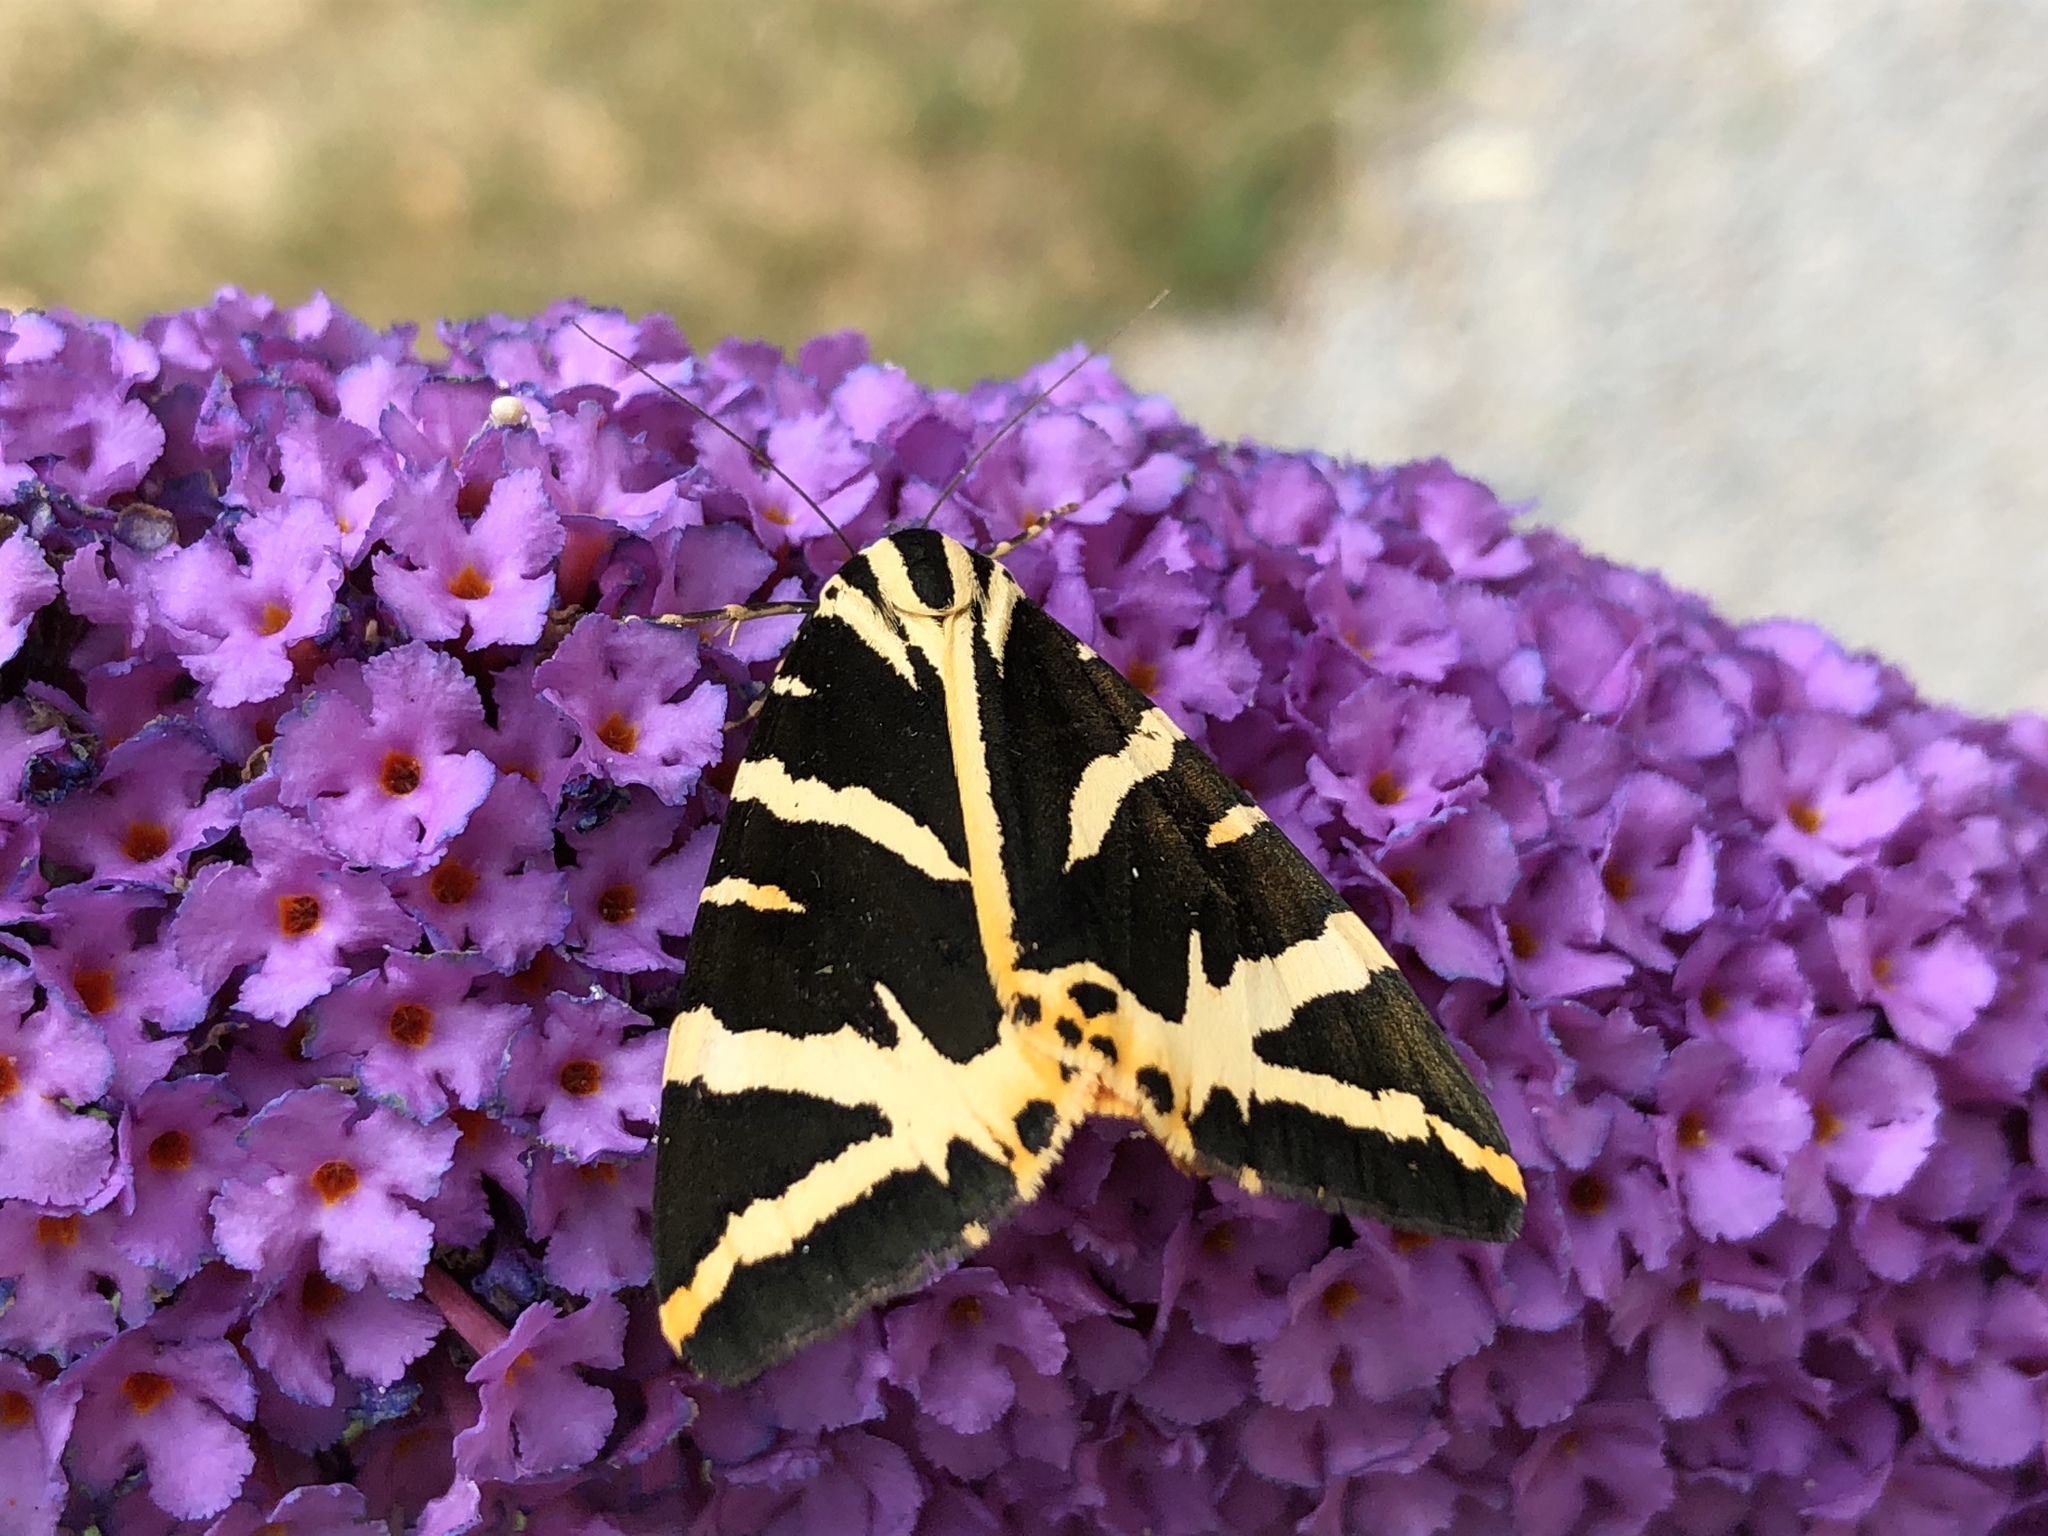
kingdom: Animalia
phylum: Arthropoda
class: Insecta
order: Lepidoptera
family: Erebidae
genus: Euplagia
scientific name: Euplagia quadripunctaria
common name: Jersey tiger
